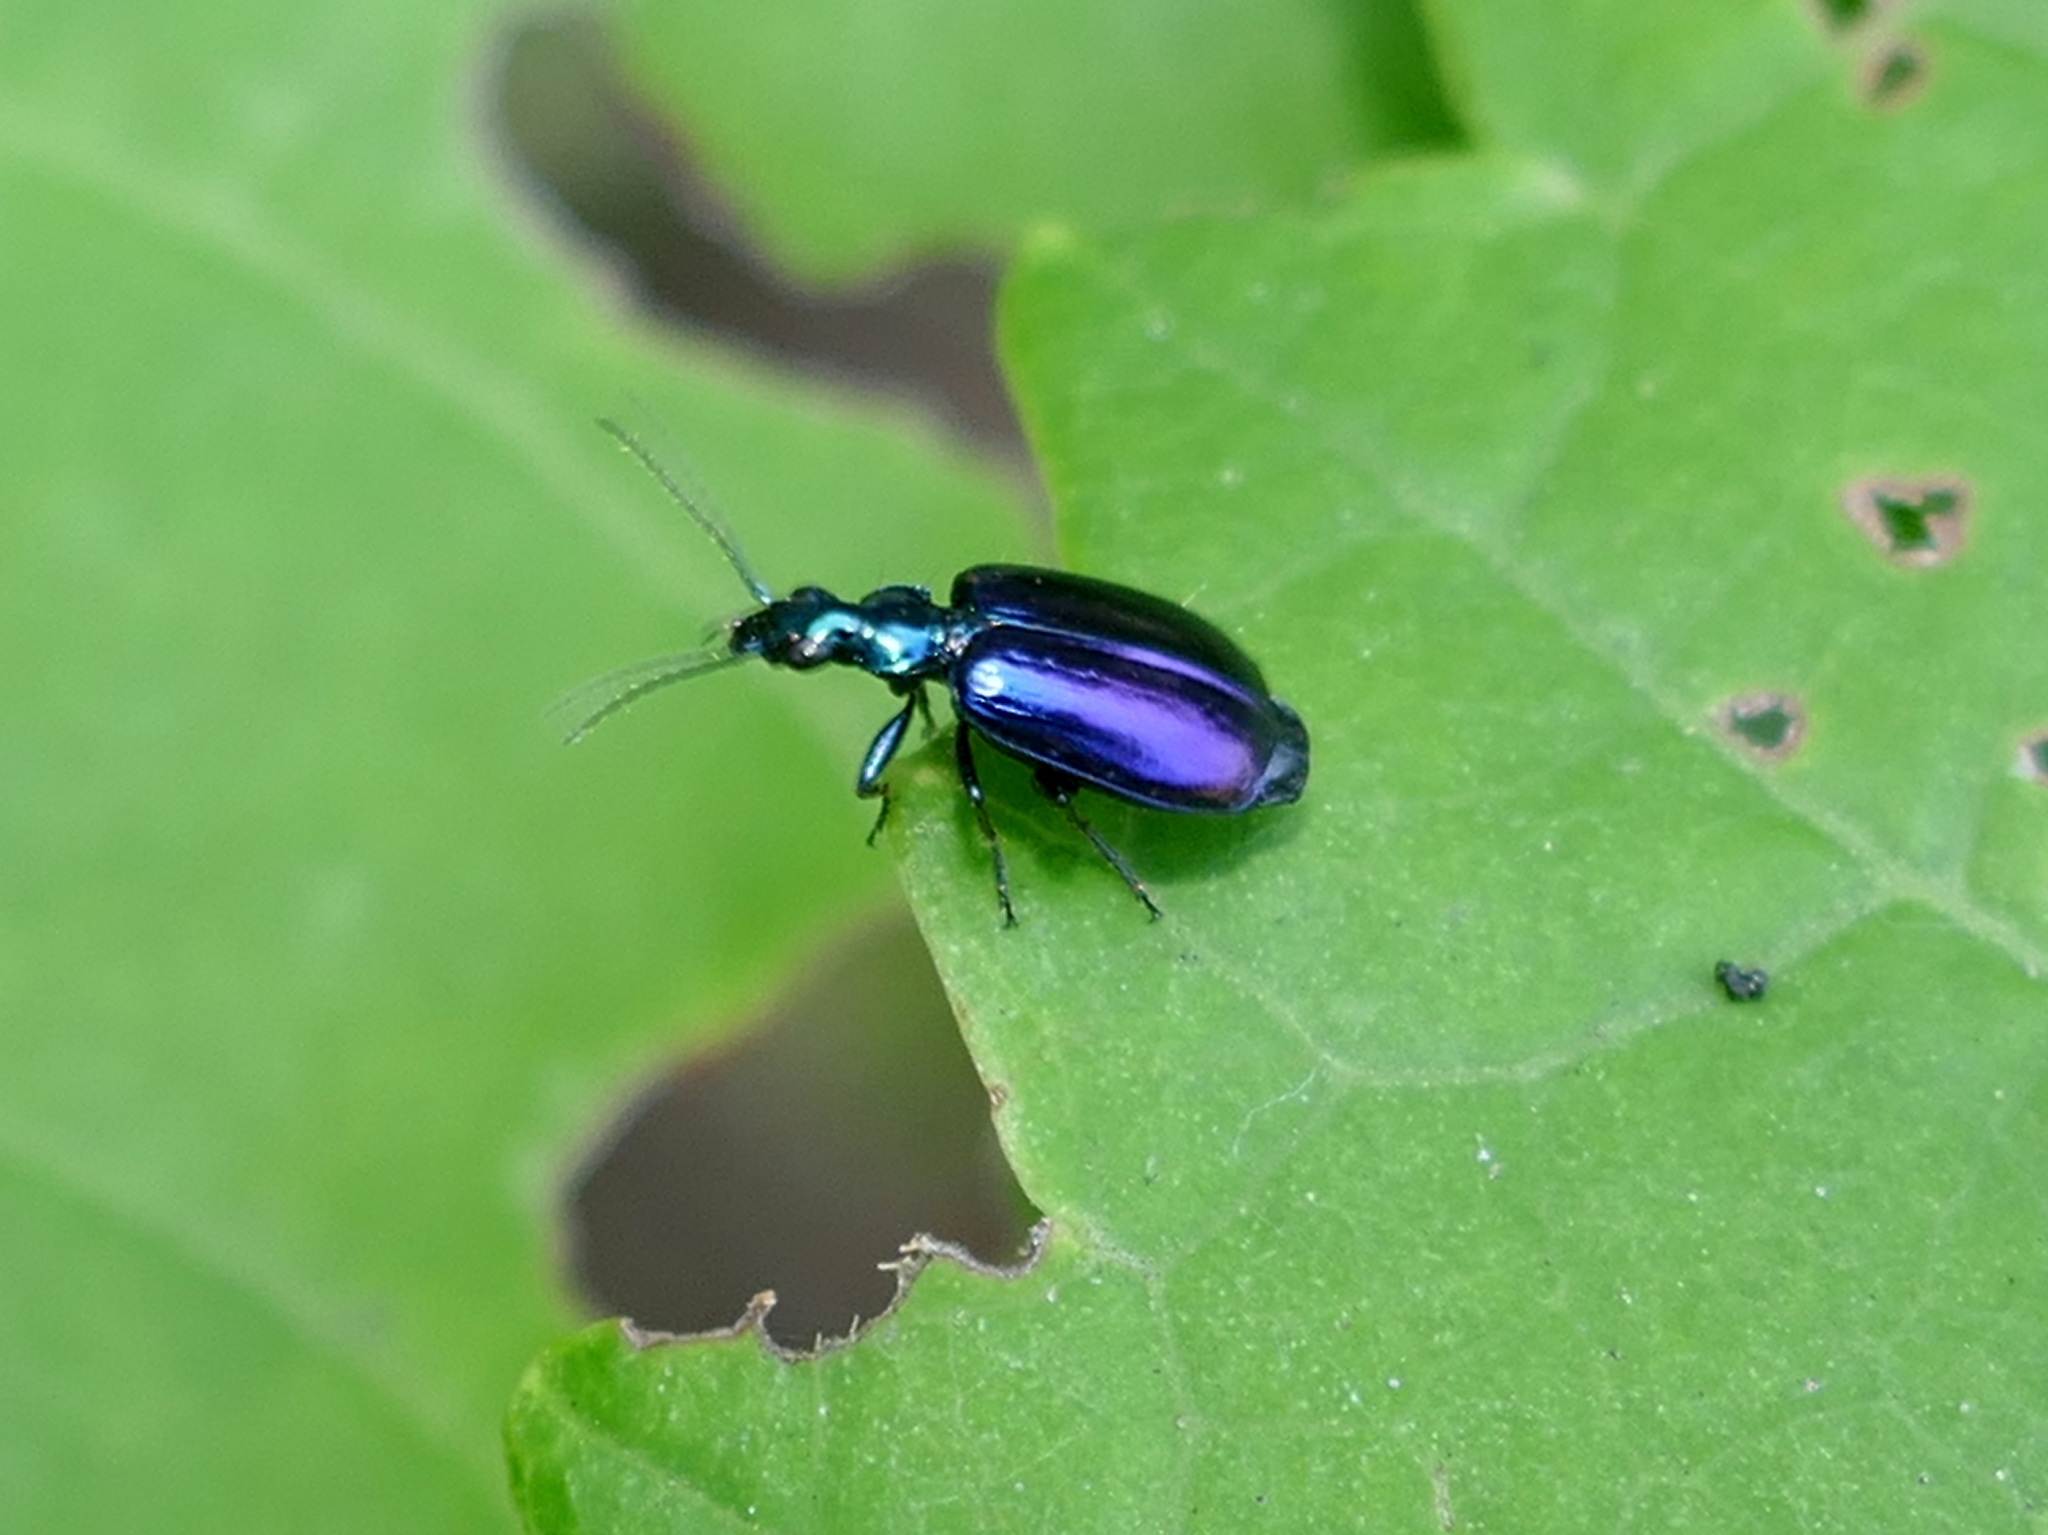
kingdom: Animalia
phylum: Arthropoda
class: Insecta
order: Coleoptera
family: Carabidae
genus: Lebia
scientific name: Lebia viridis
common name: Flower lebia beetle
